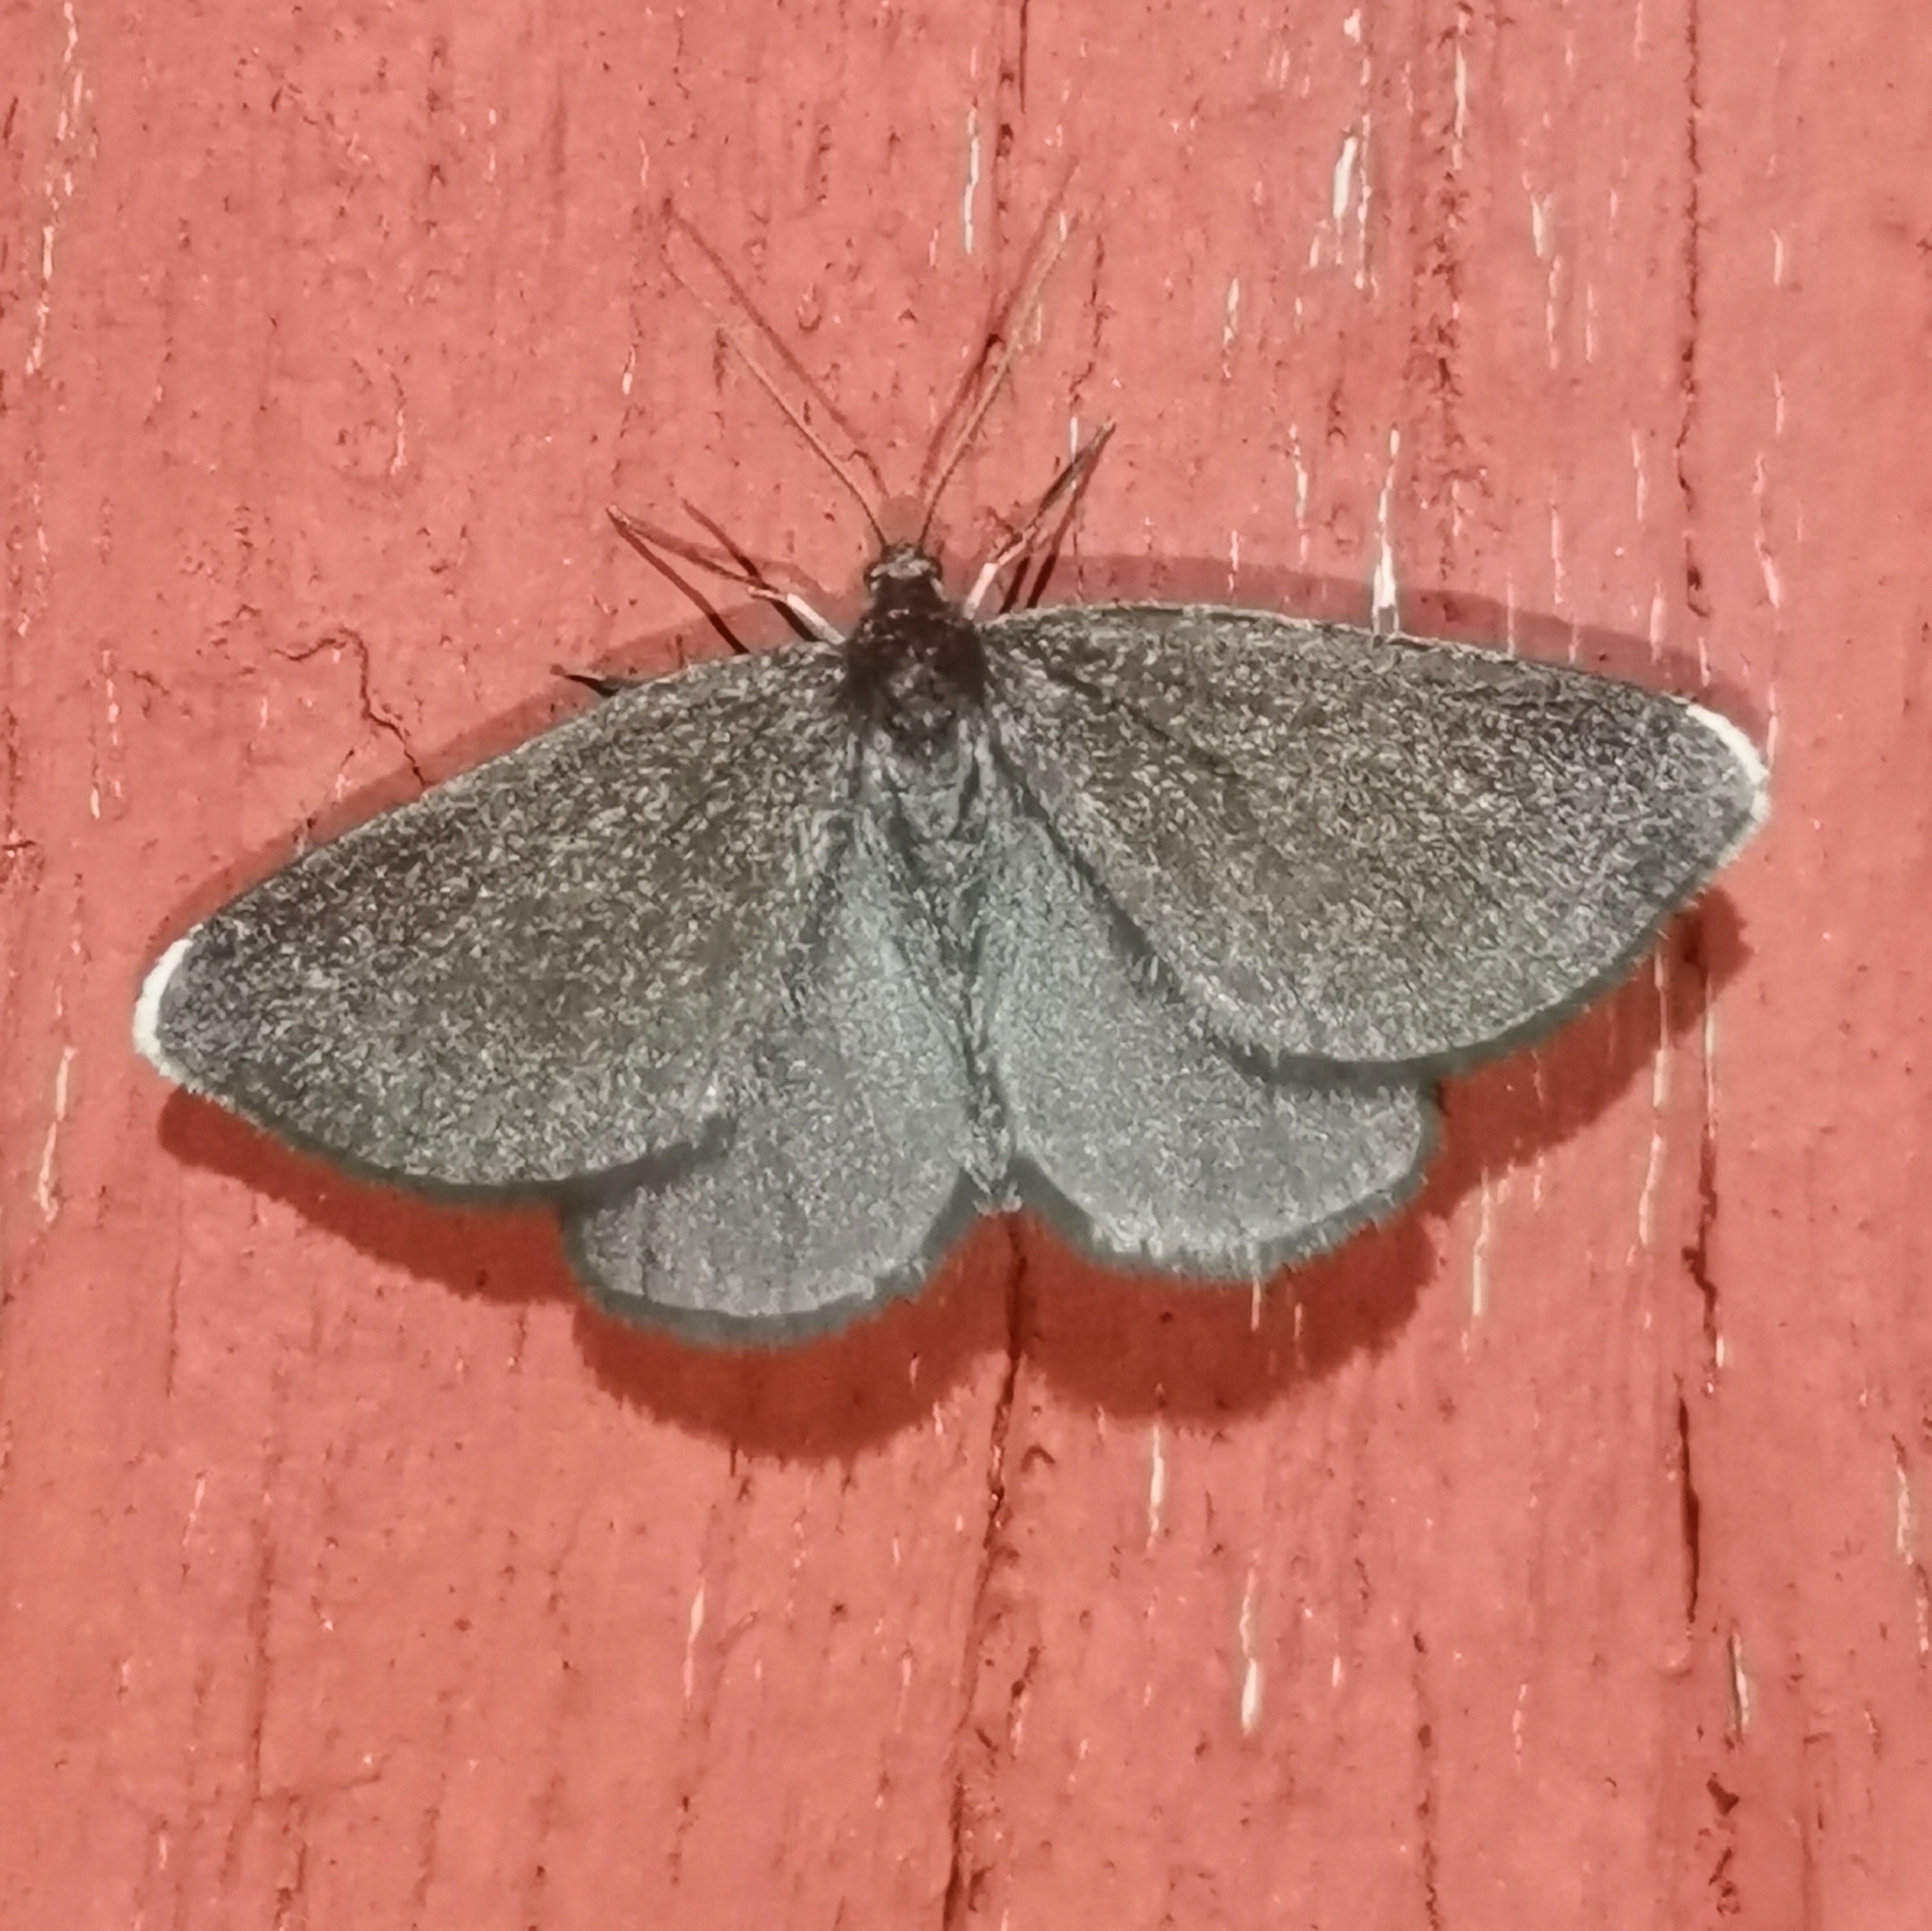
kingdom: Animalia
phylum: Arthropoda
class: Insecta
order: Lepidoptera
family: Geometridae
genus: Odezia
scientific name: Odezia atrata
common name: Chimney sweeper
